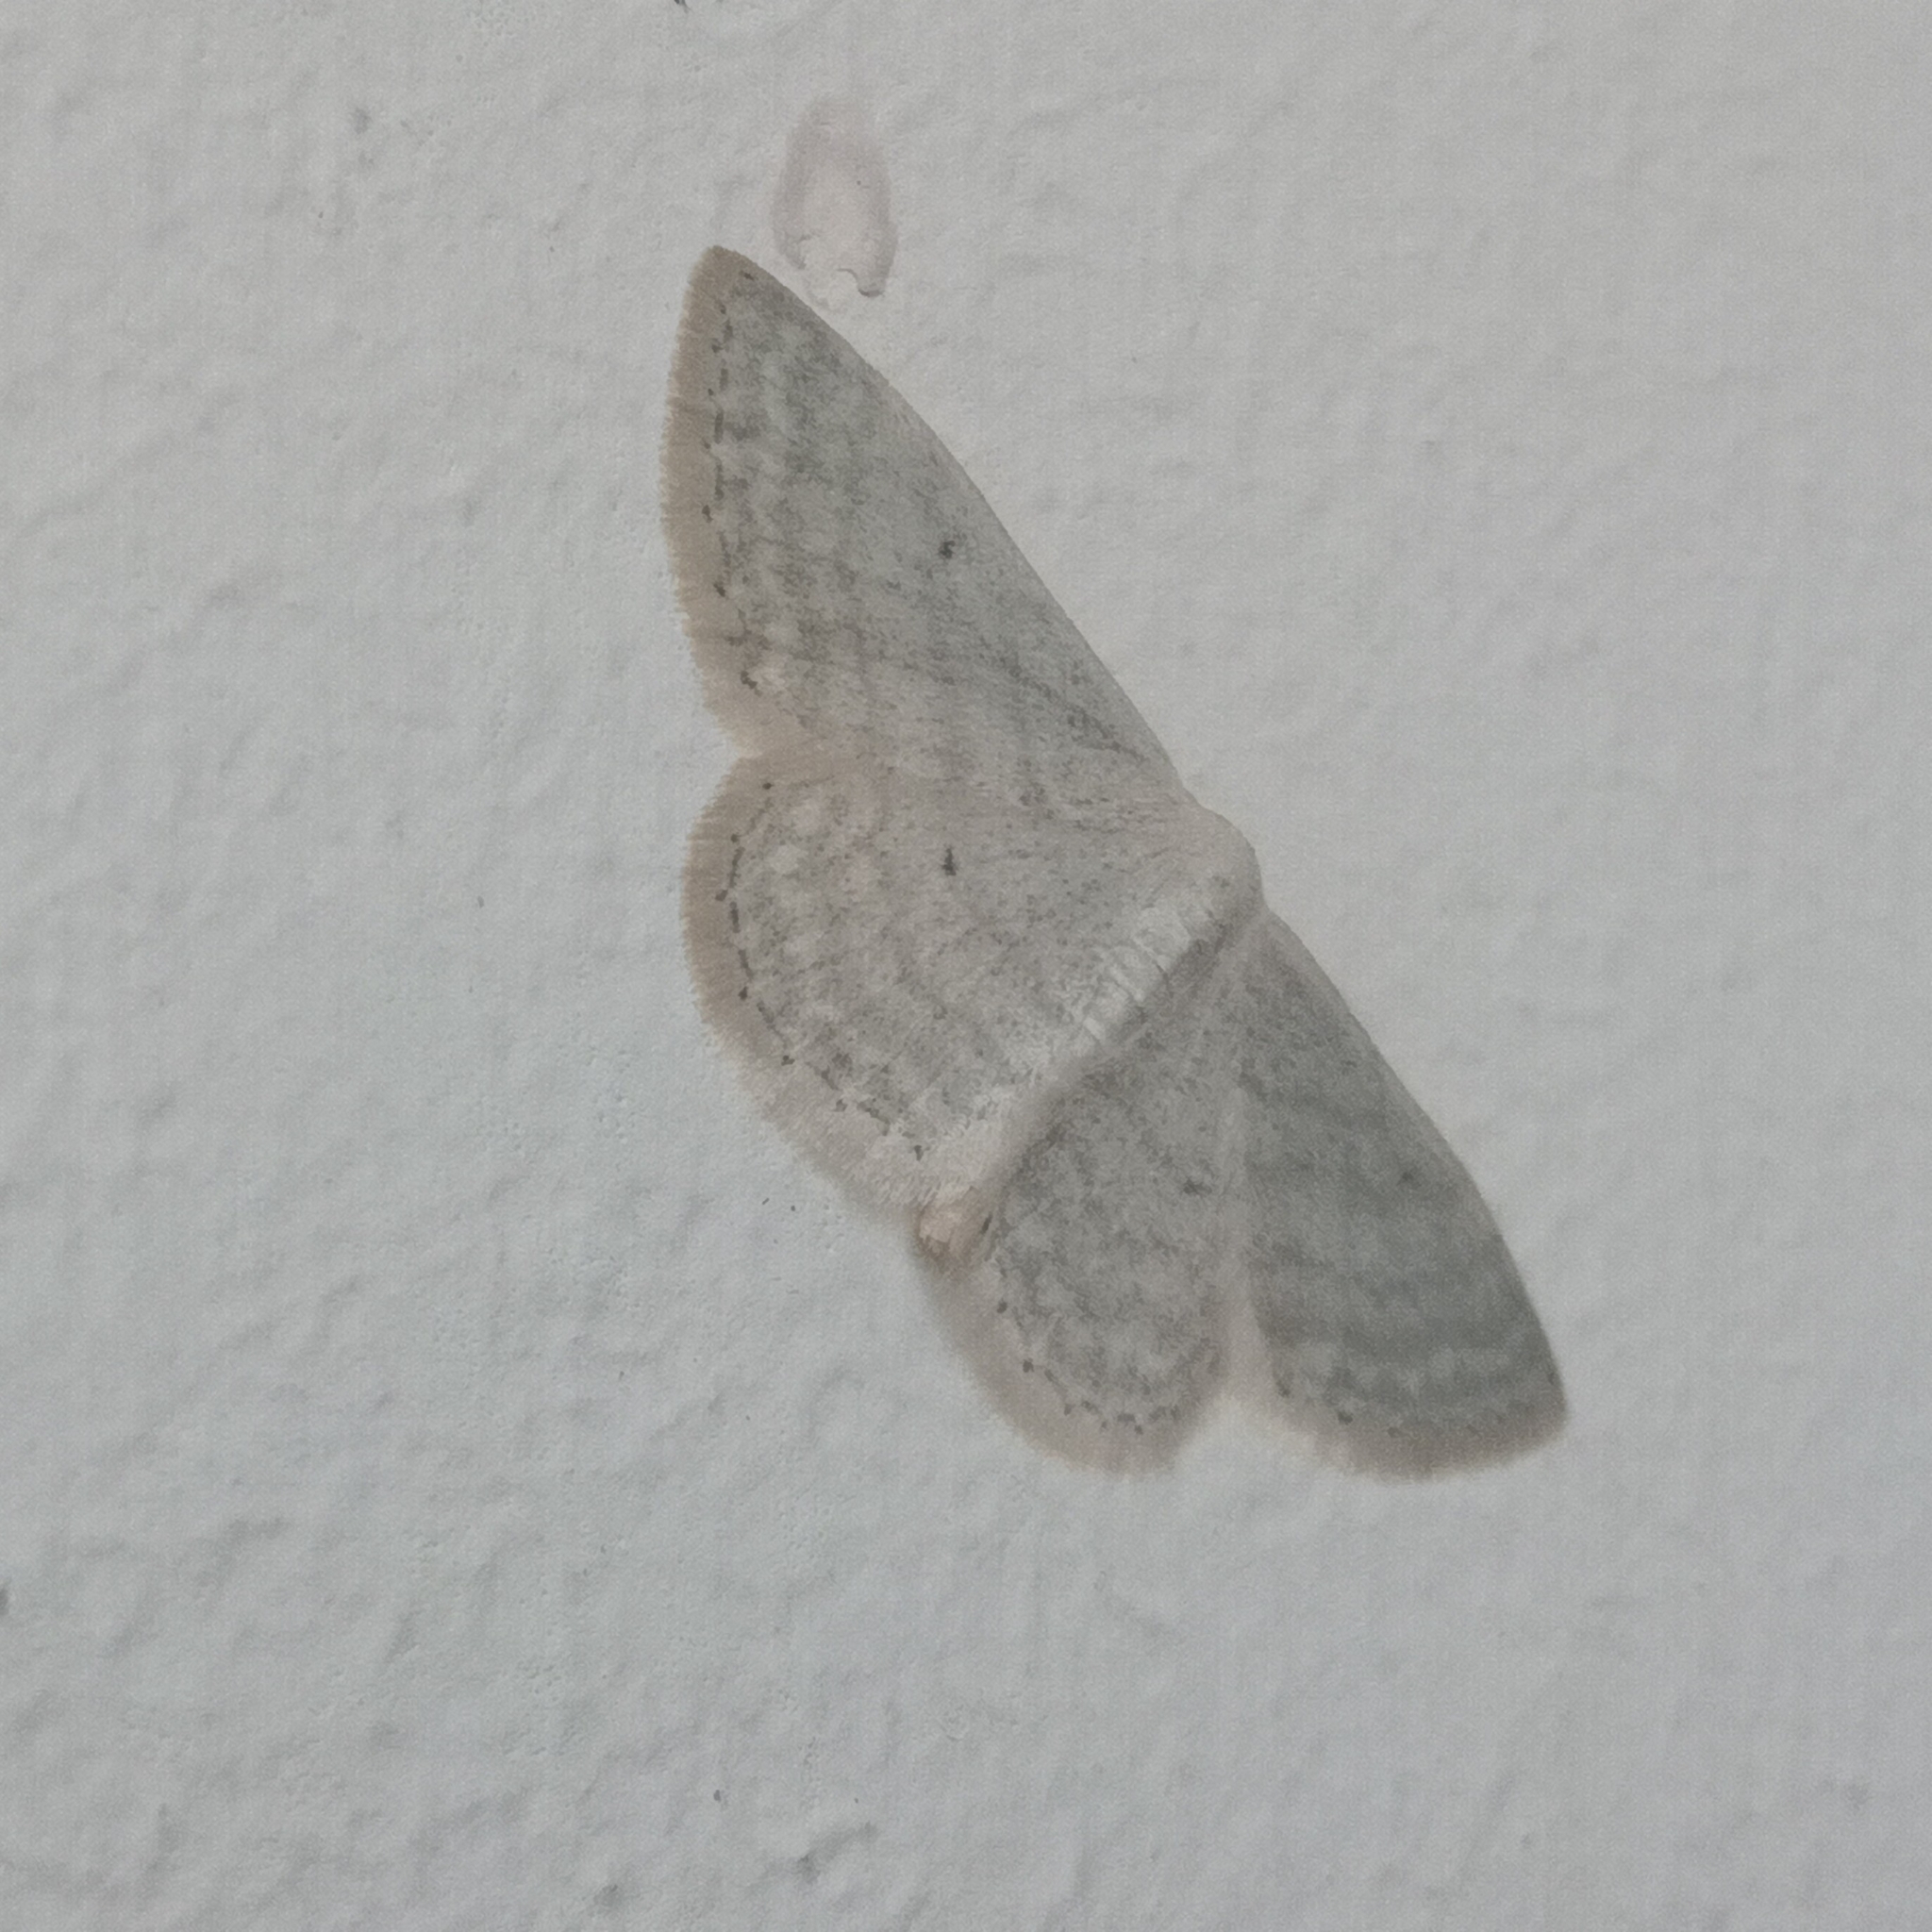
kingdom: Animalia
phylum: Arthropoda
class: Insecta
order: Lepidoptera
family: Geometridae
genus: Idaea
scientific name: Idaea subsericeata
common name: Satin wave
